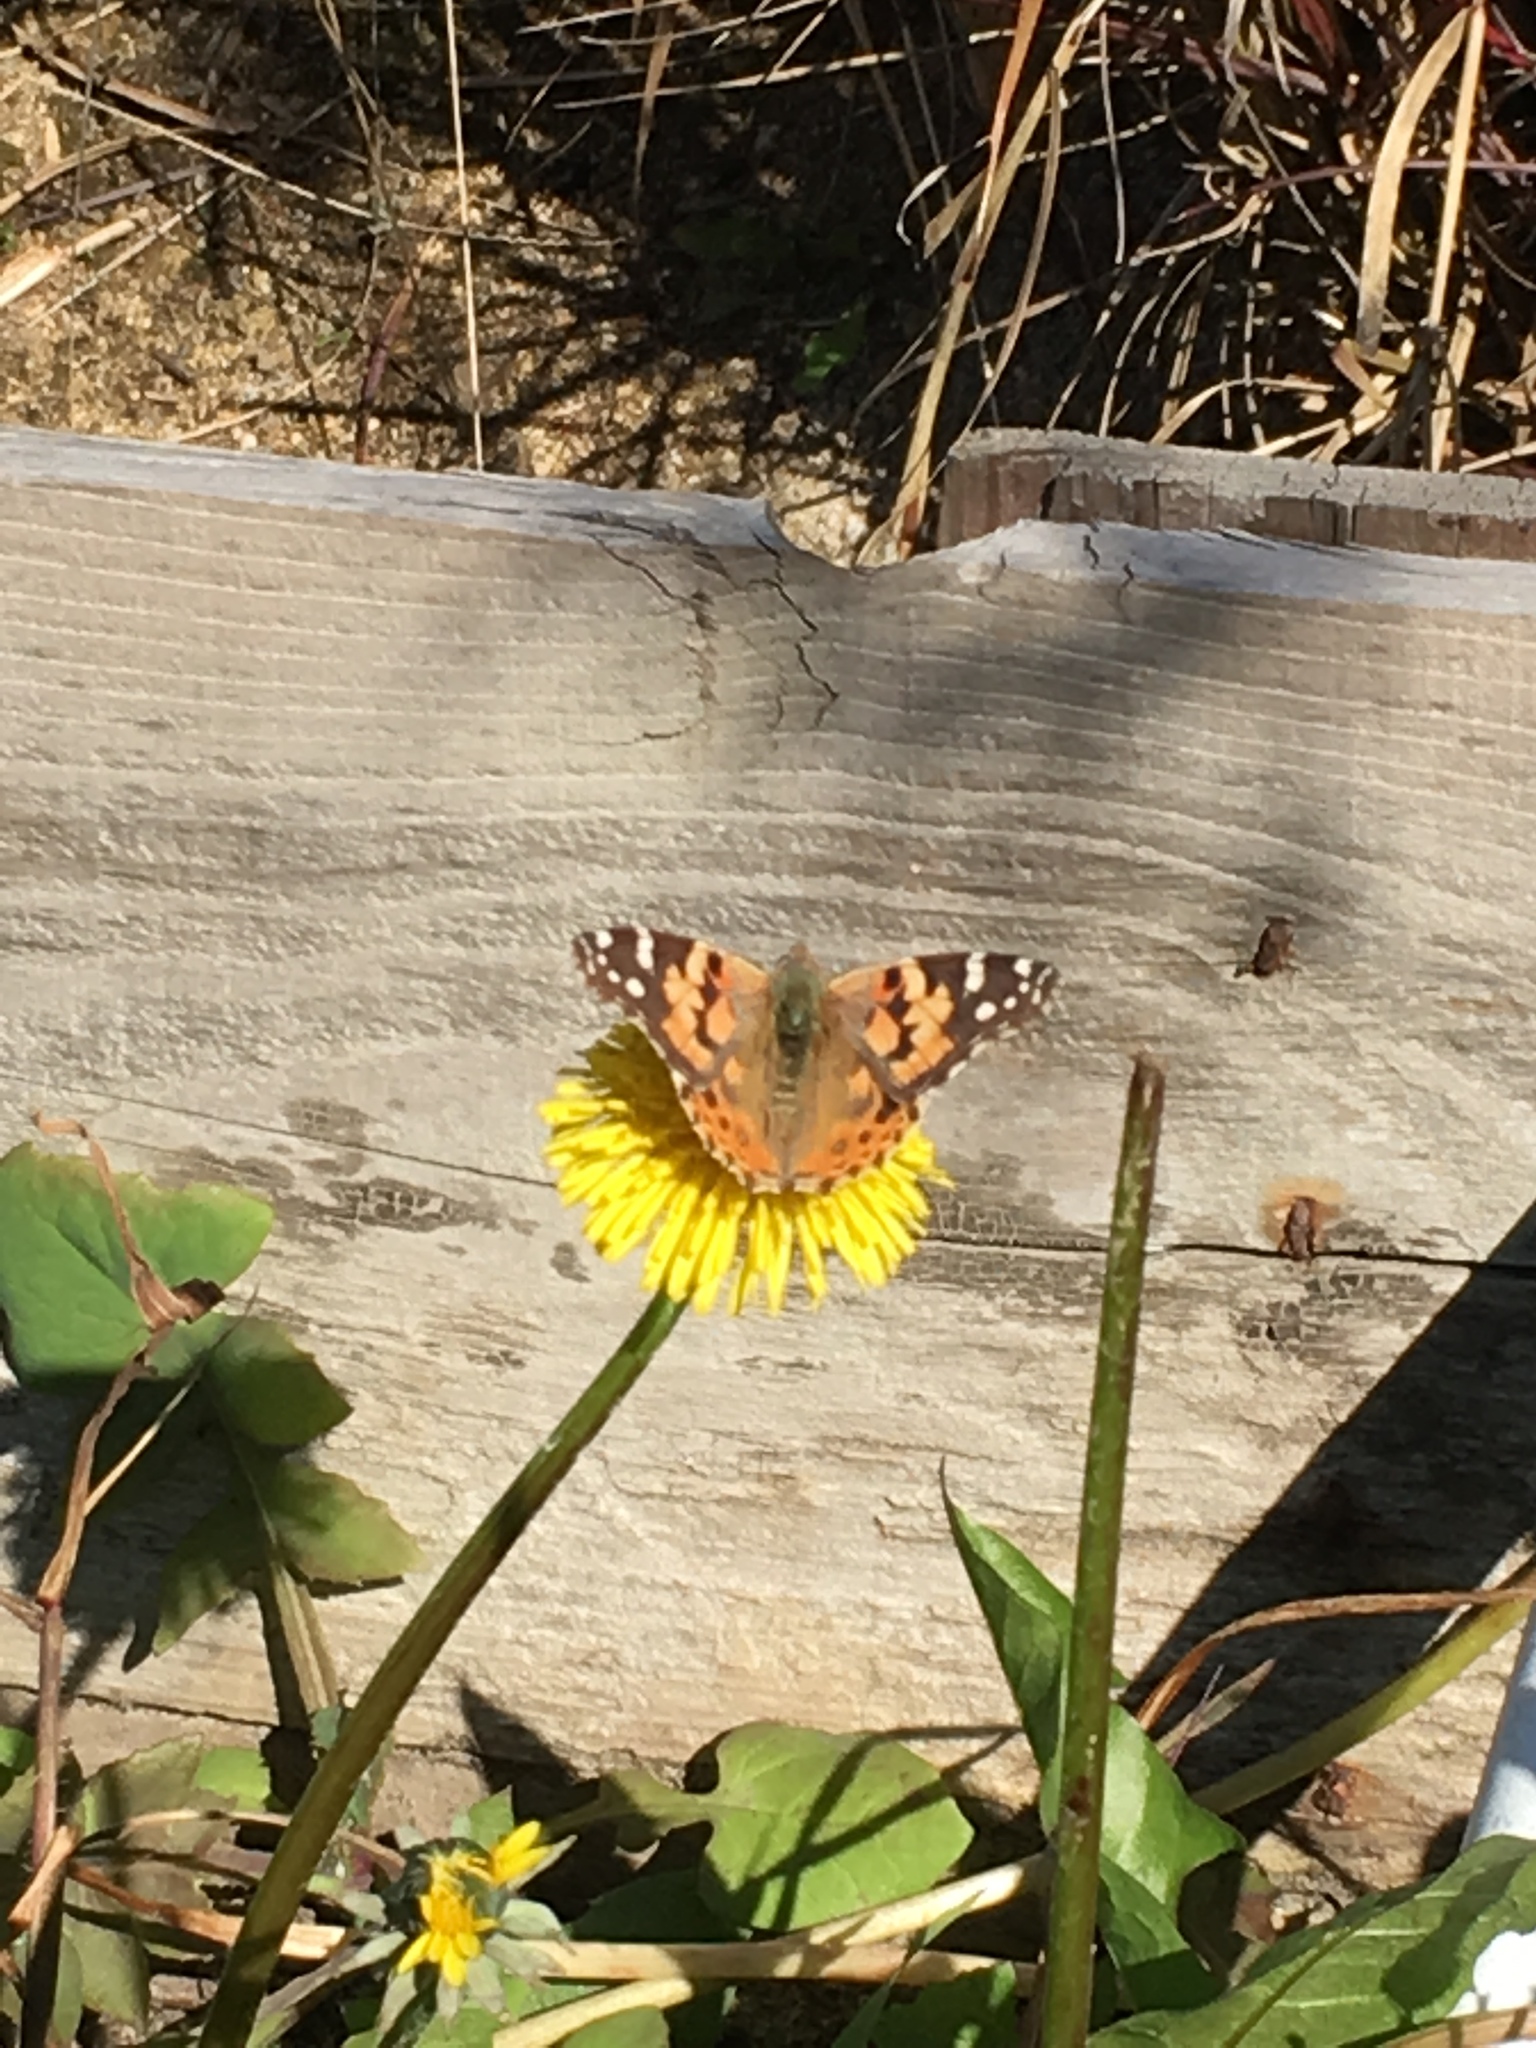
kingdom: Animalia
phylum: Arthropoda
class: Insecta
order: Lepidoptera
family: Nymphalidae
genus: Vanessa
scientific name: Vanessa cardui
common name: Painted lady
